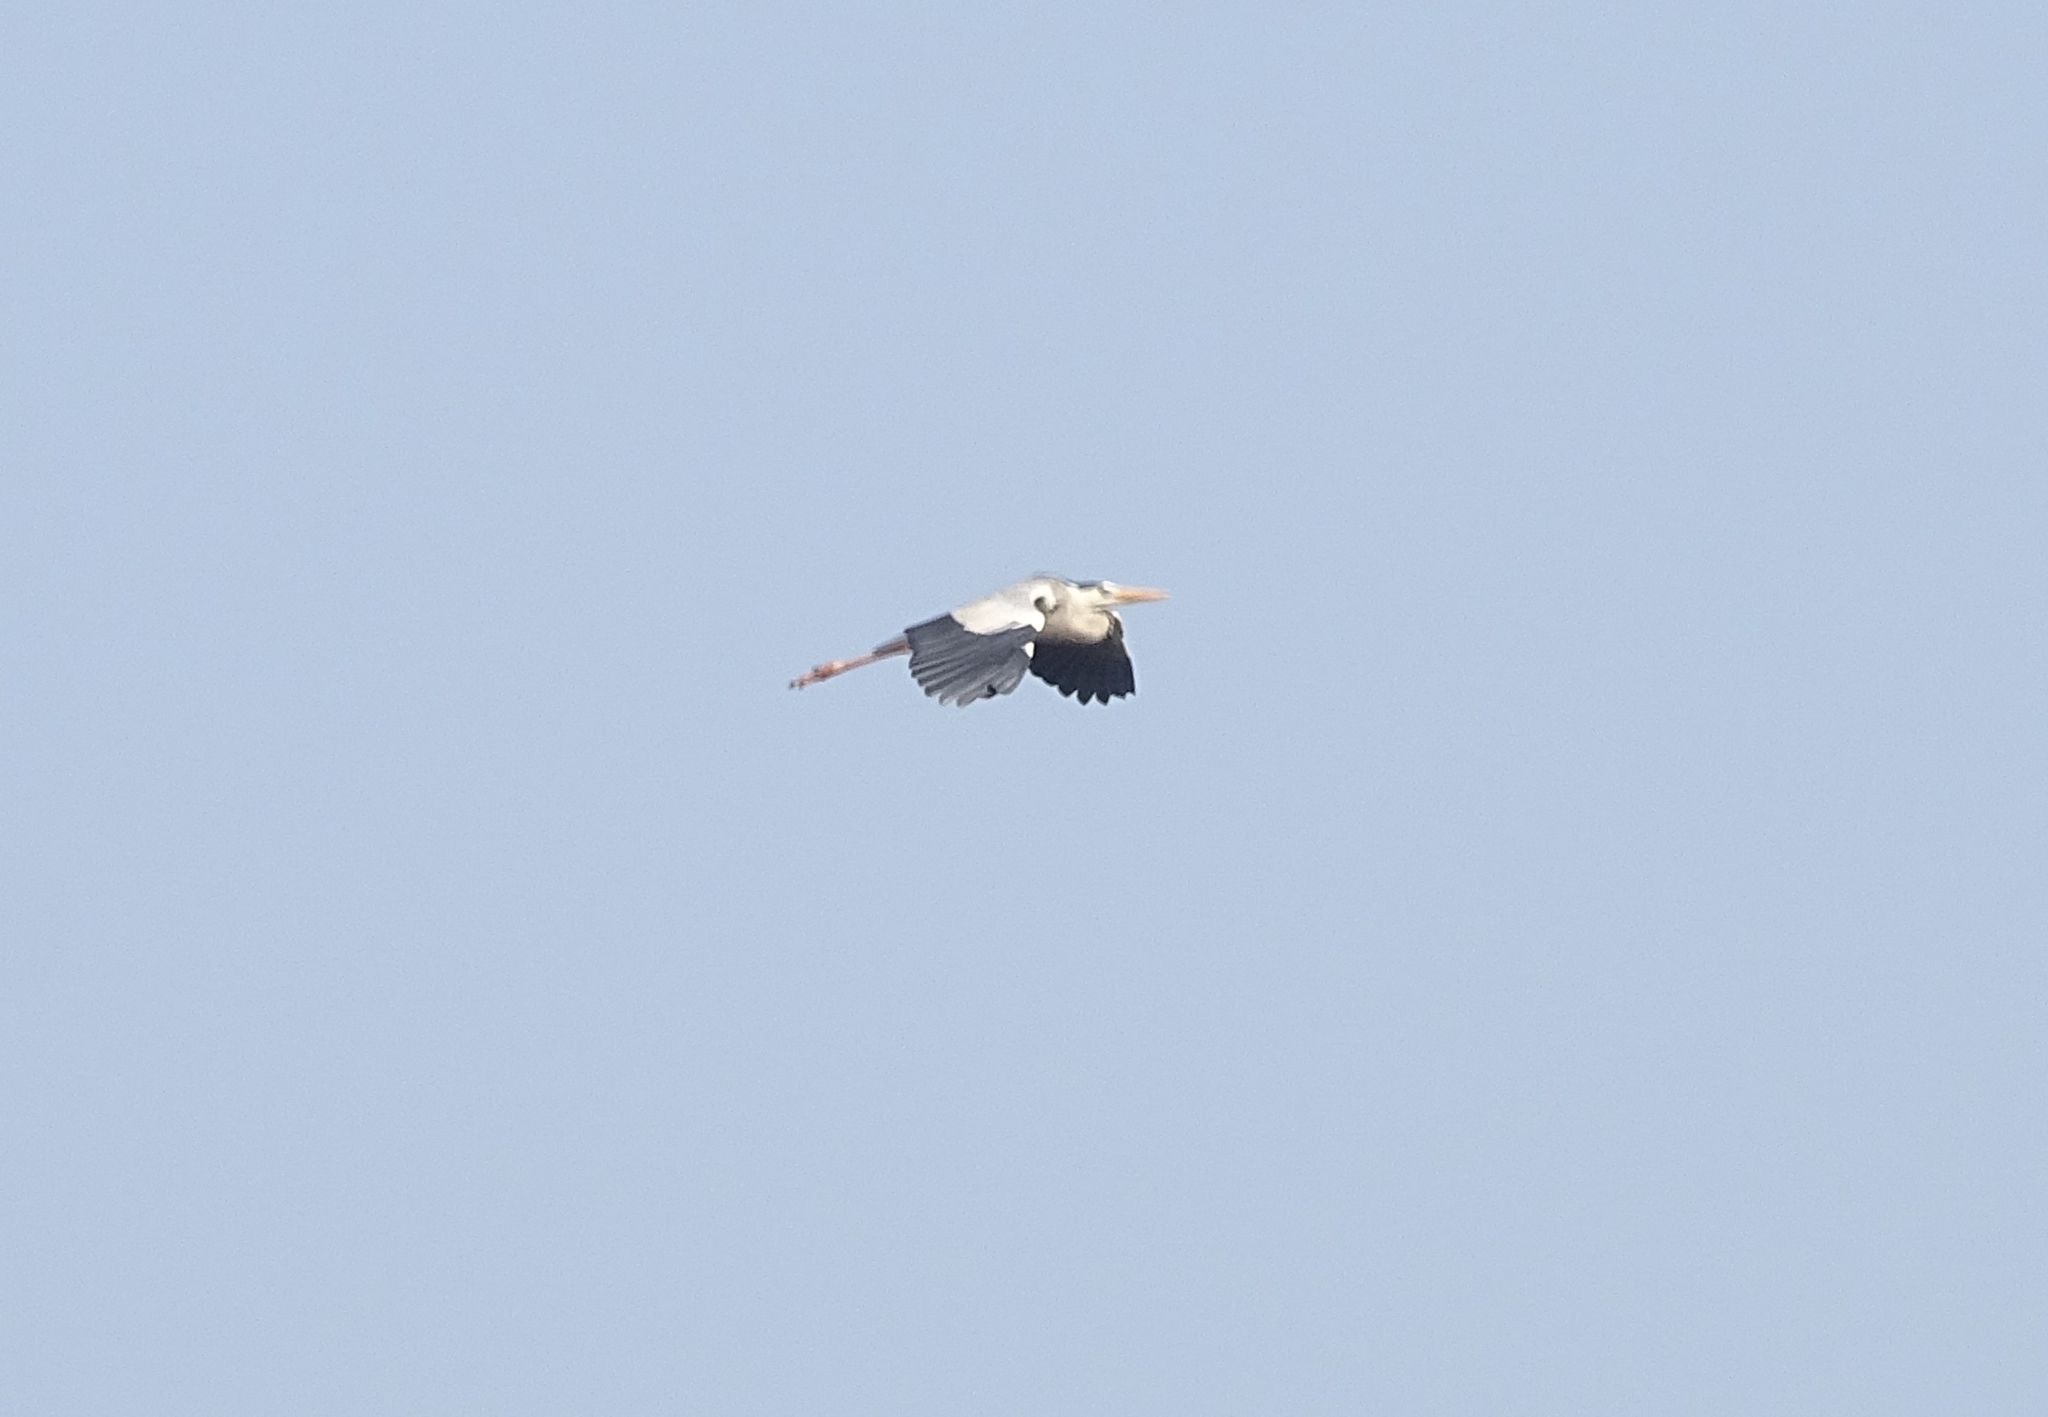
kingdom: Animalia
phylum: Chordata
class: Aves
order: Pelecaniformes
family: Ardeidae
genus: Ardea
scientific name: Ardea cinerea
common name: Grey heron
